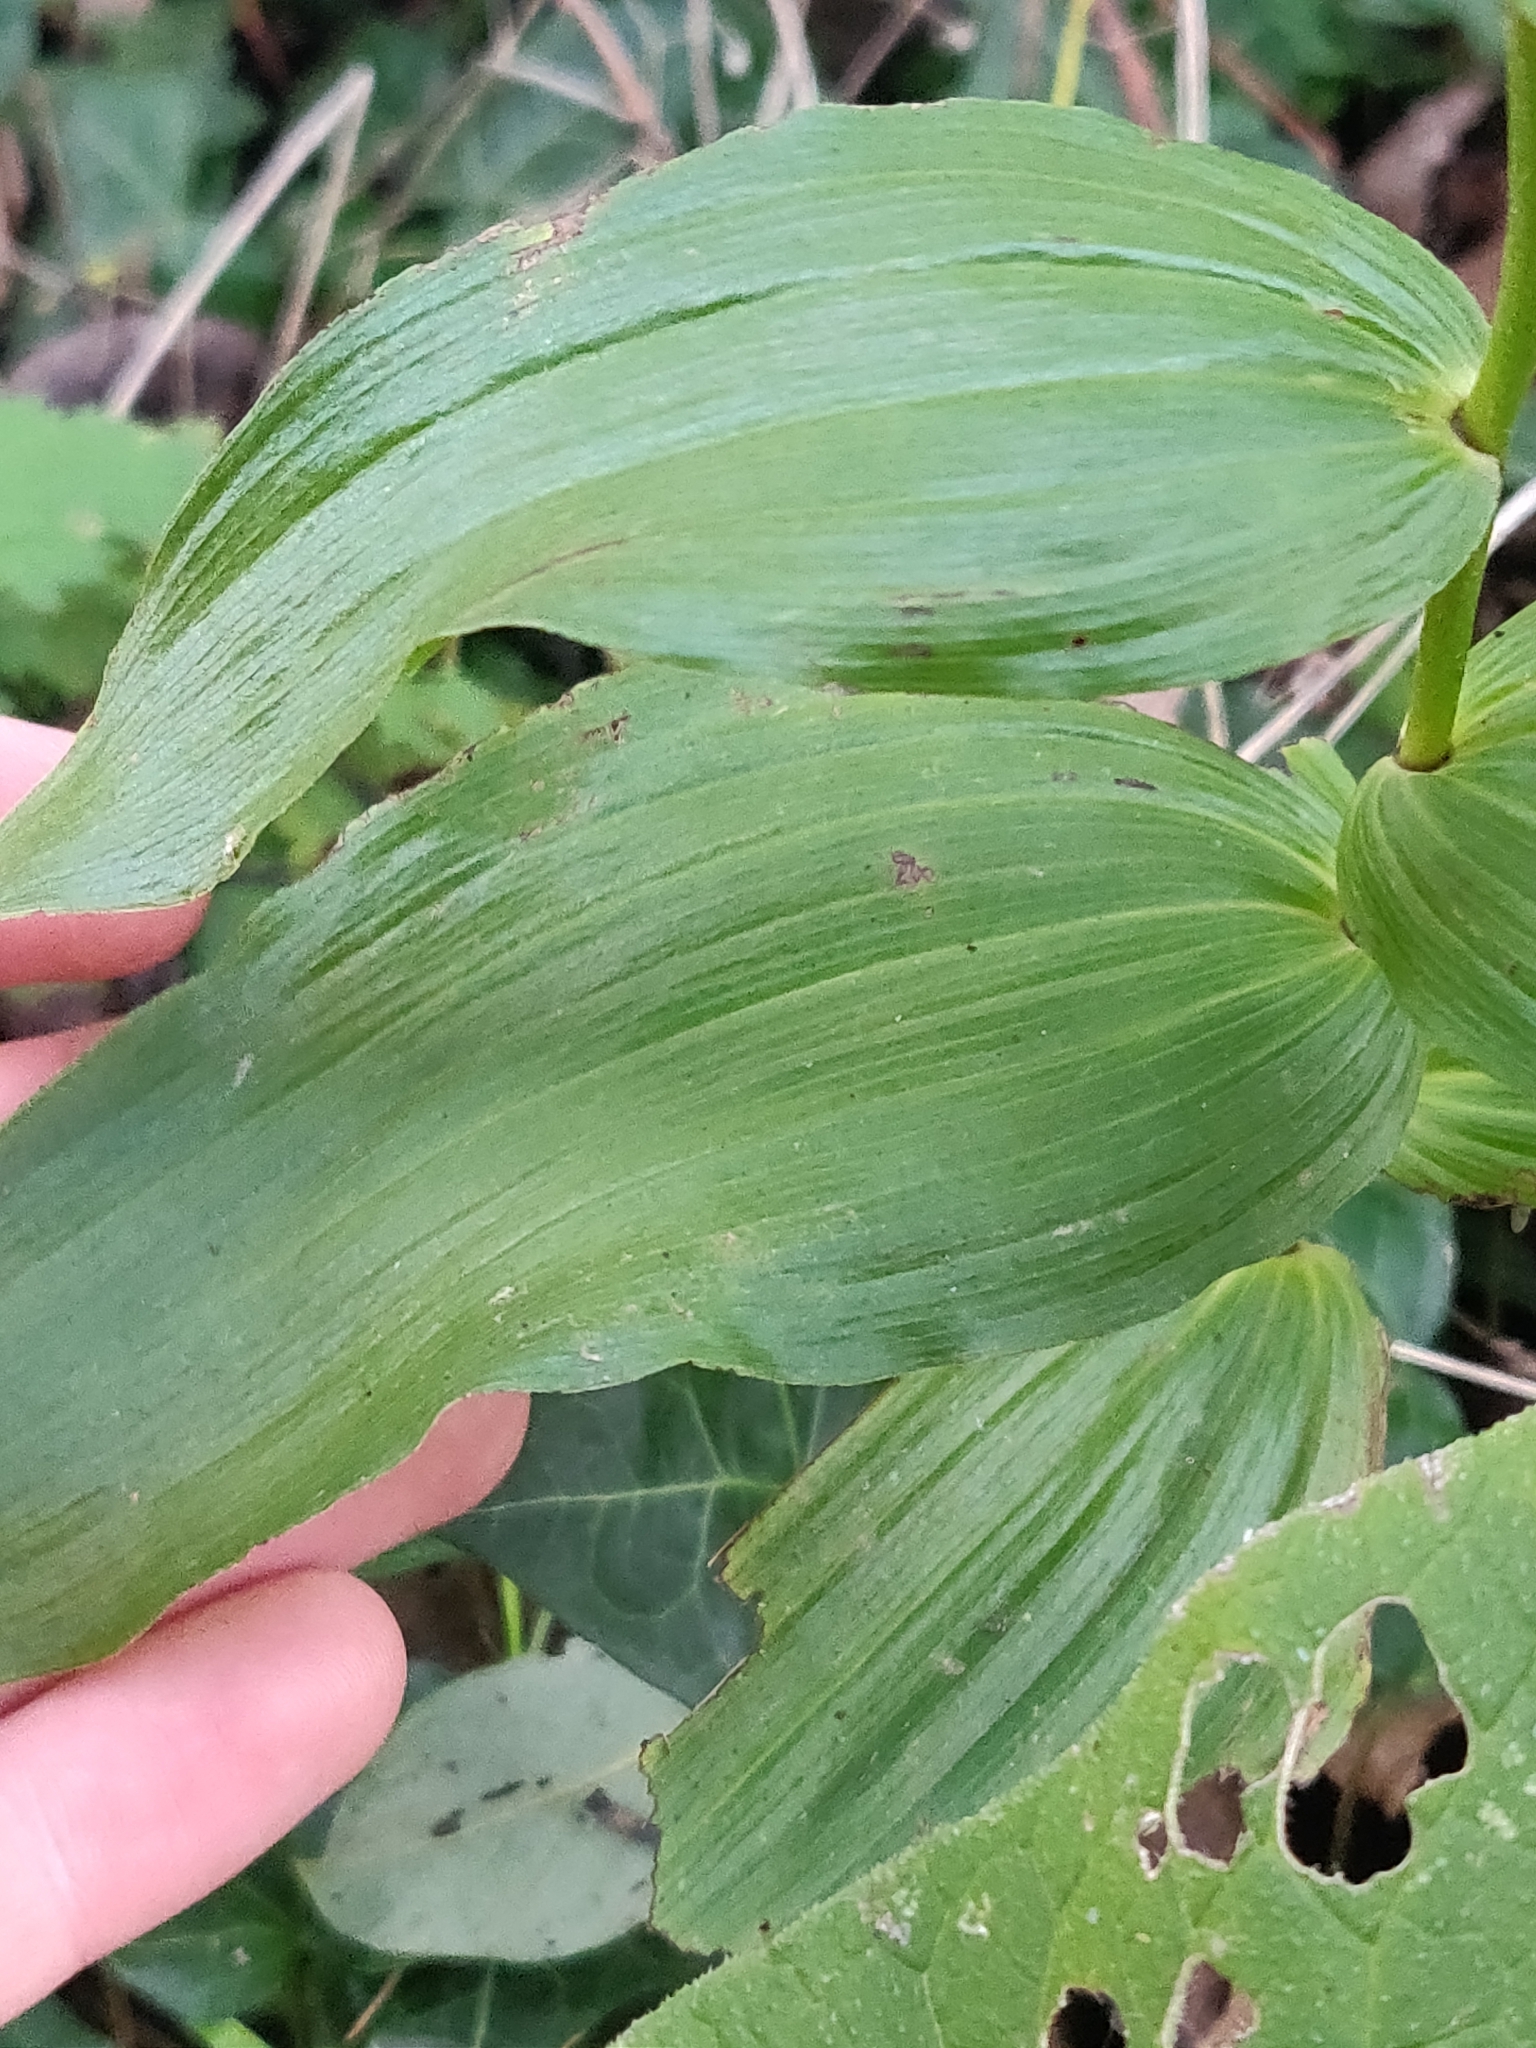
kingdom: Plantae
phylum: Tracheophyta
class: Liliopsida
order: Asparagales
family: Orchidaceae
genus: Epipactis
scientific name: Epipactis helleborine
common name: Broad-leaved helleborine
